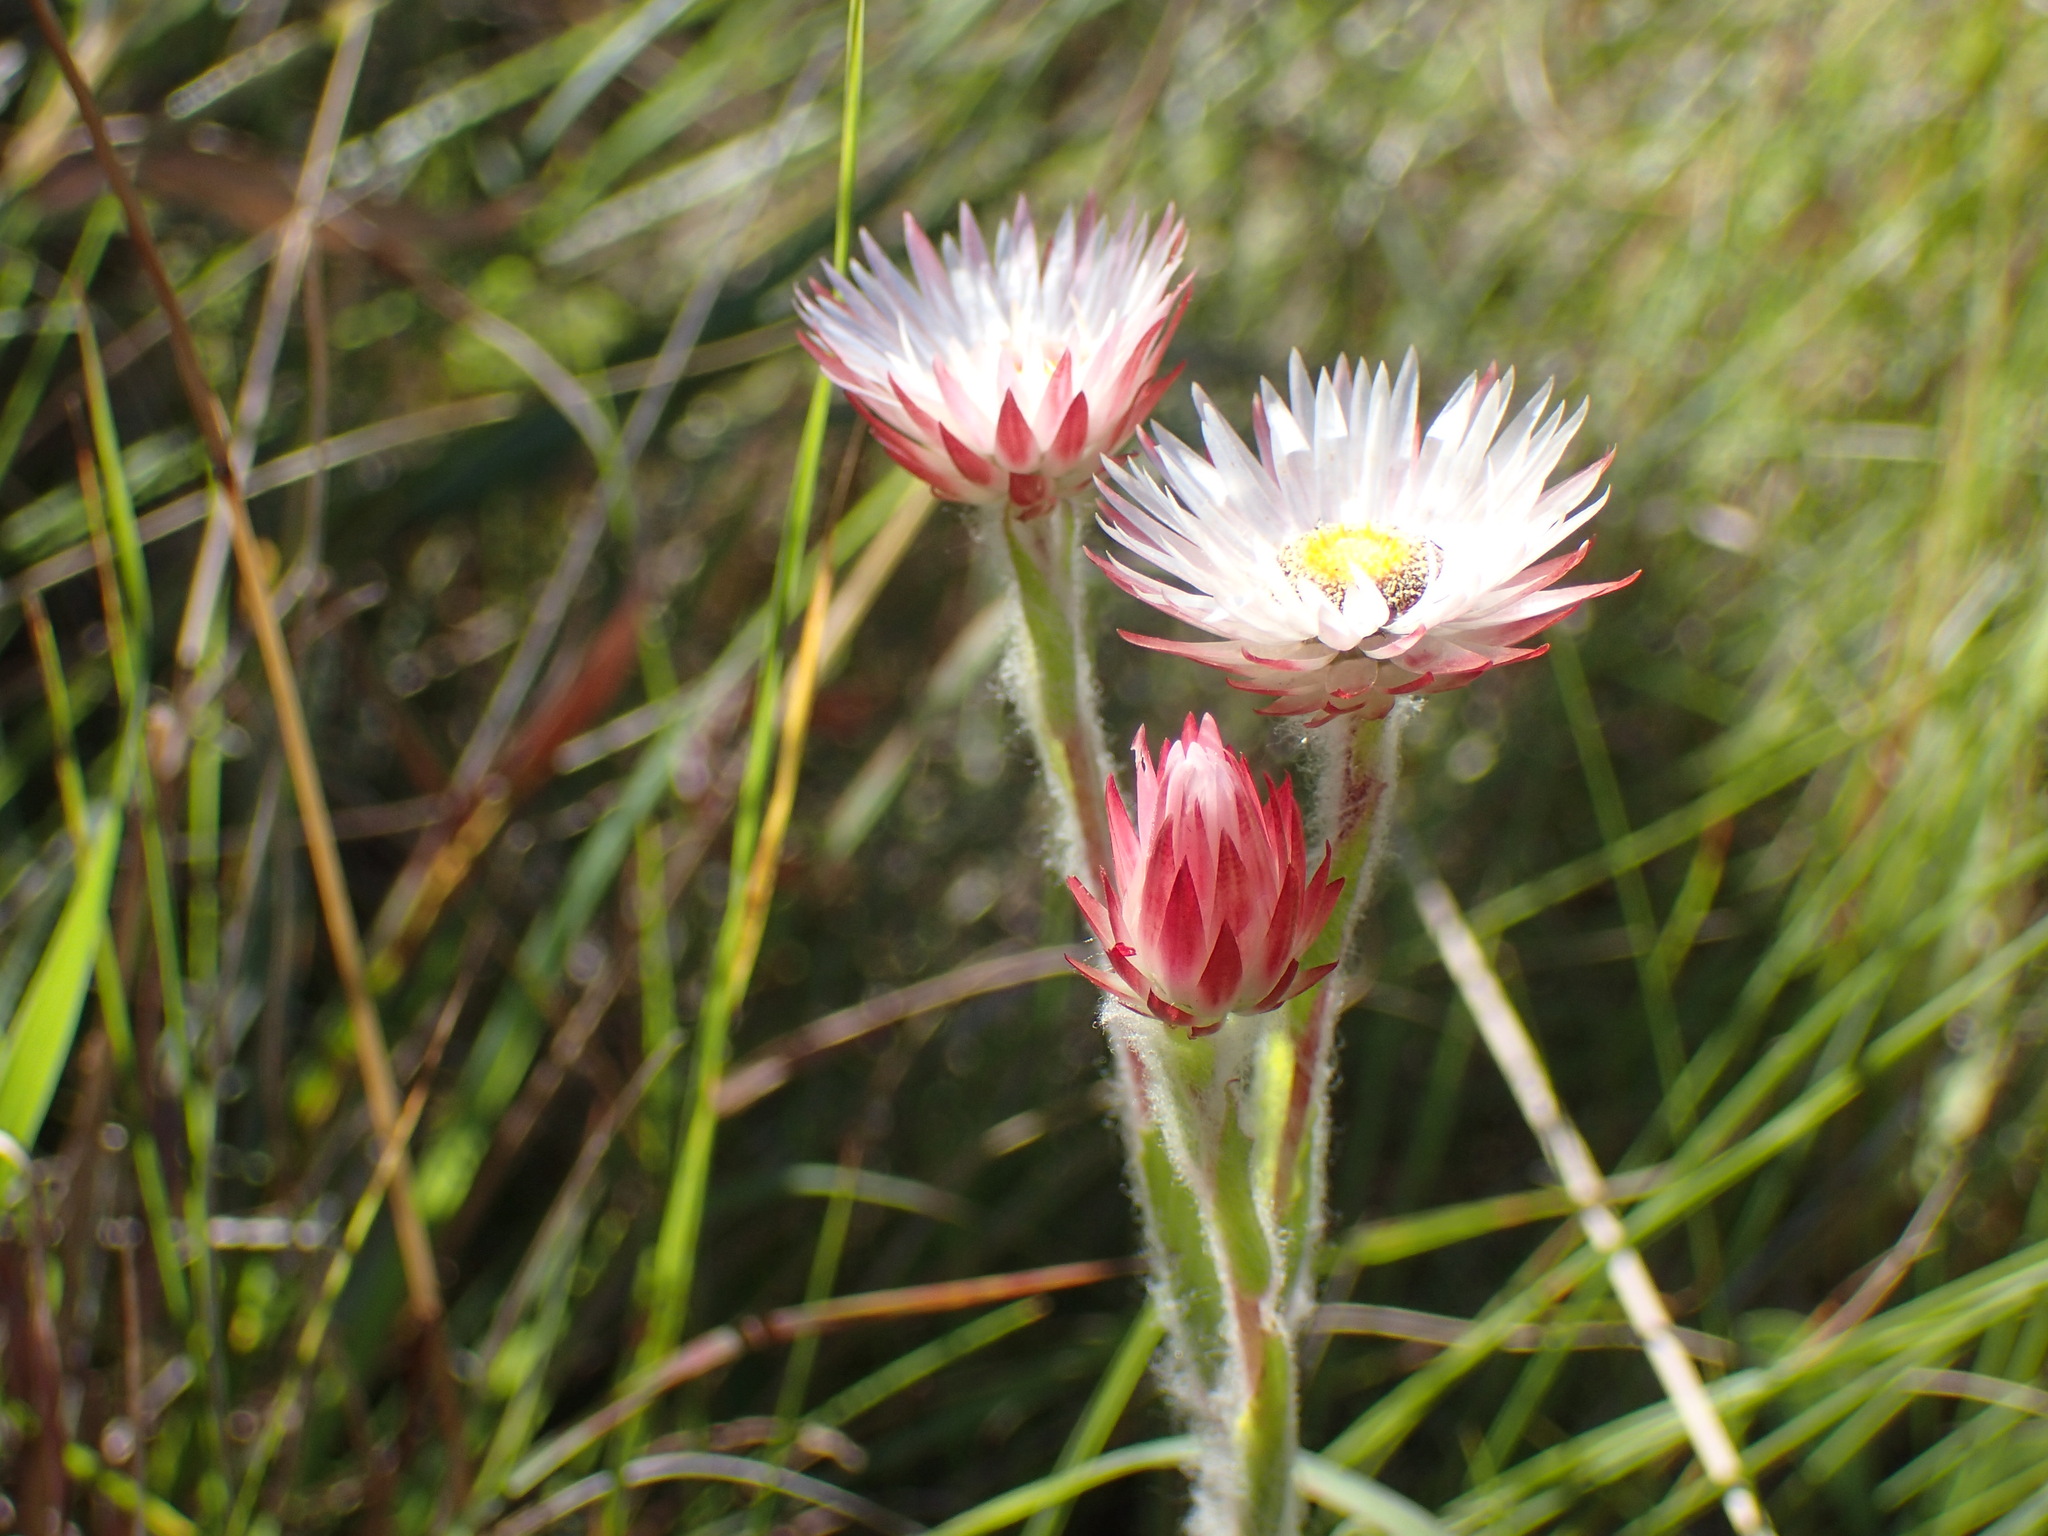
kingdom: Plantae
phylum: Tracheophyta
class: Magnoliopsida
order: Asterales
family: Asteraceae
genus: Helichrysum
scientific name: Helichrysum adenocarpum
